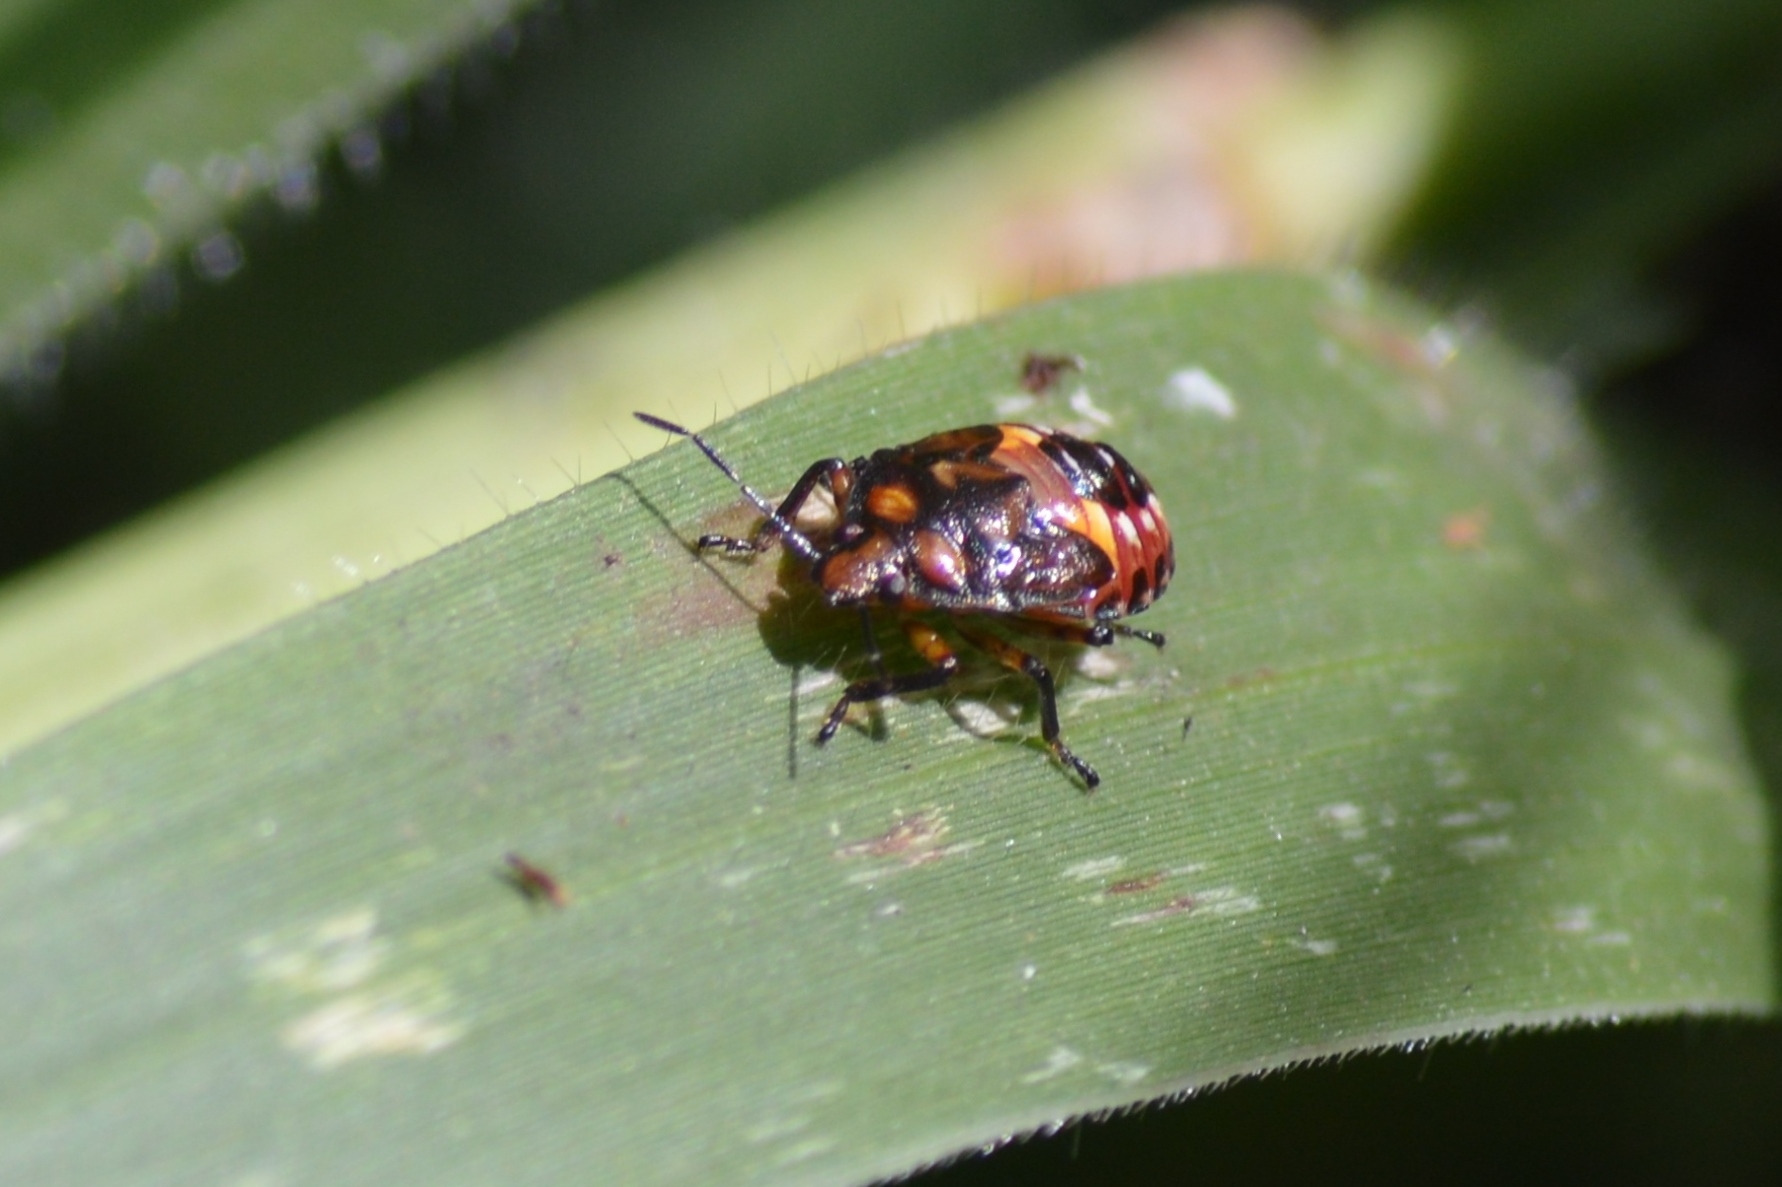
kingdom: Animalia
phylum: Arthropoda
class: Insecta
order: Hemiptera
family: Pentatomidae
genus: Podisus
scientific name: Podisus fuscescens
